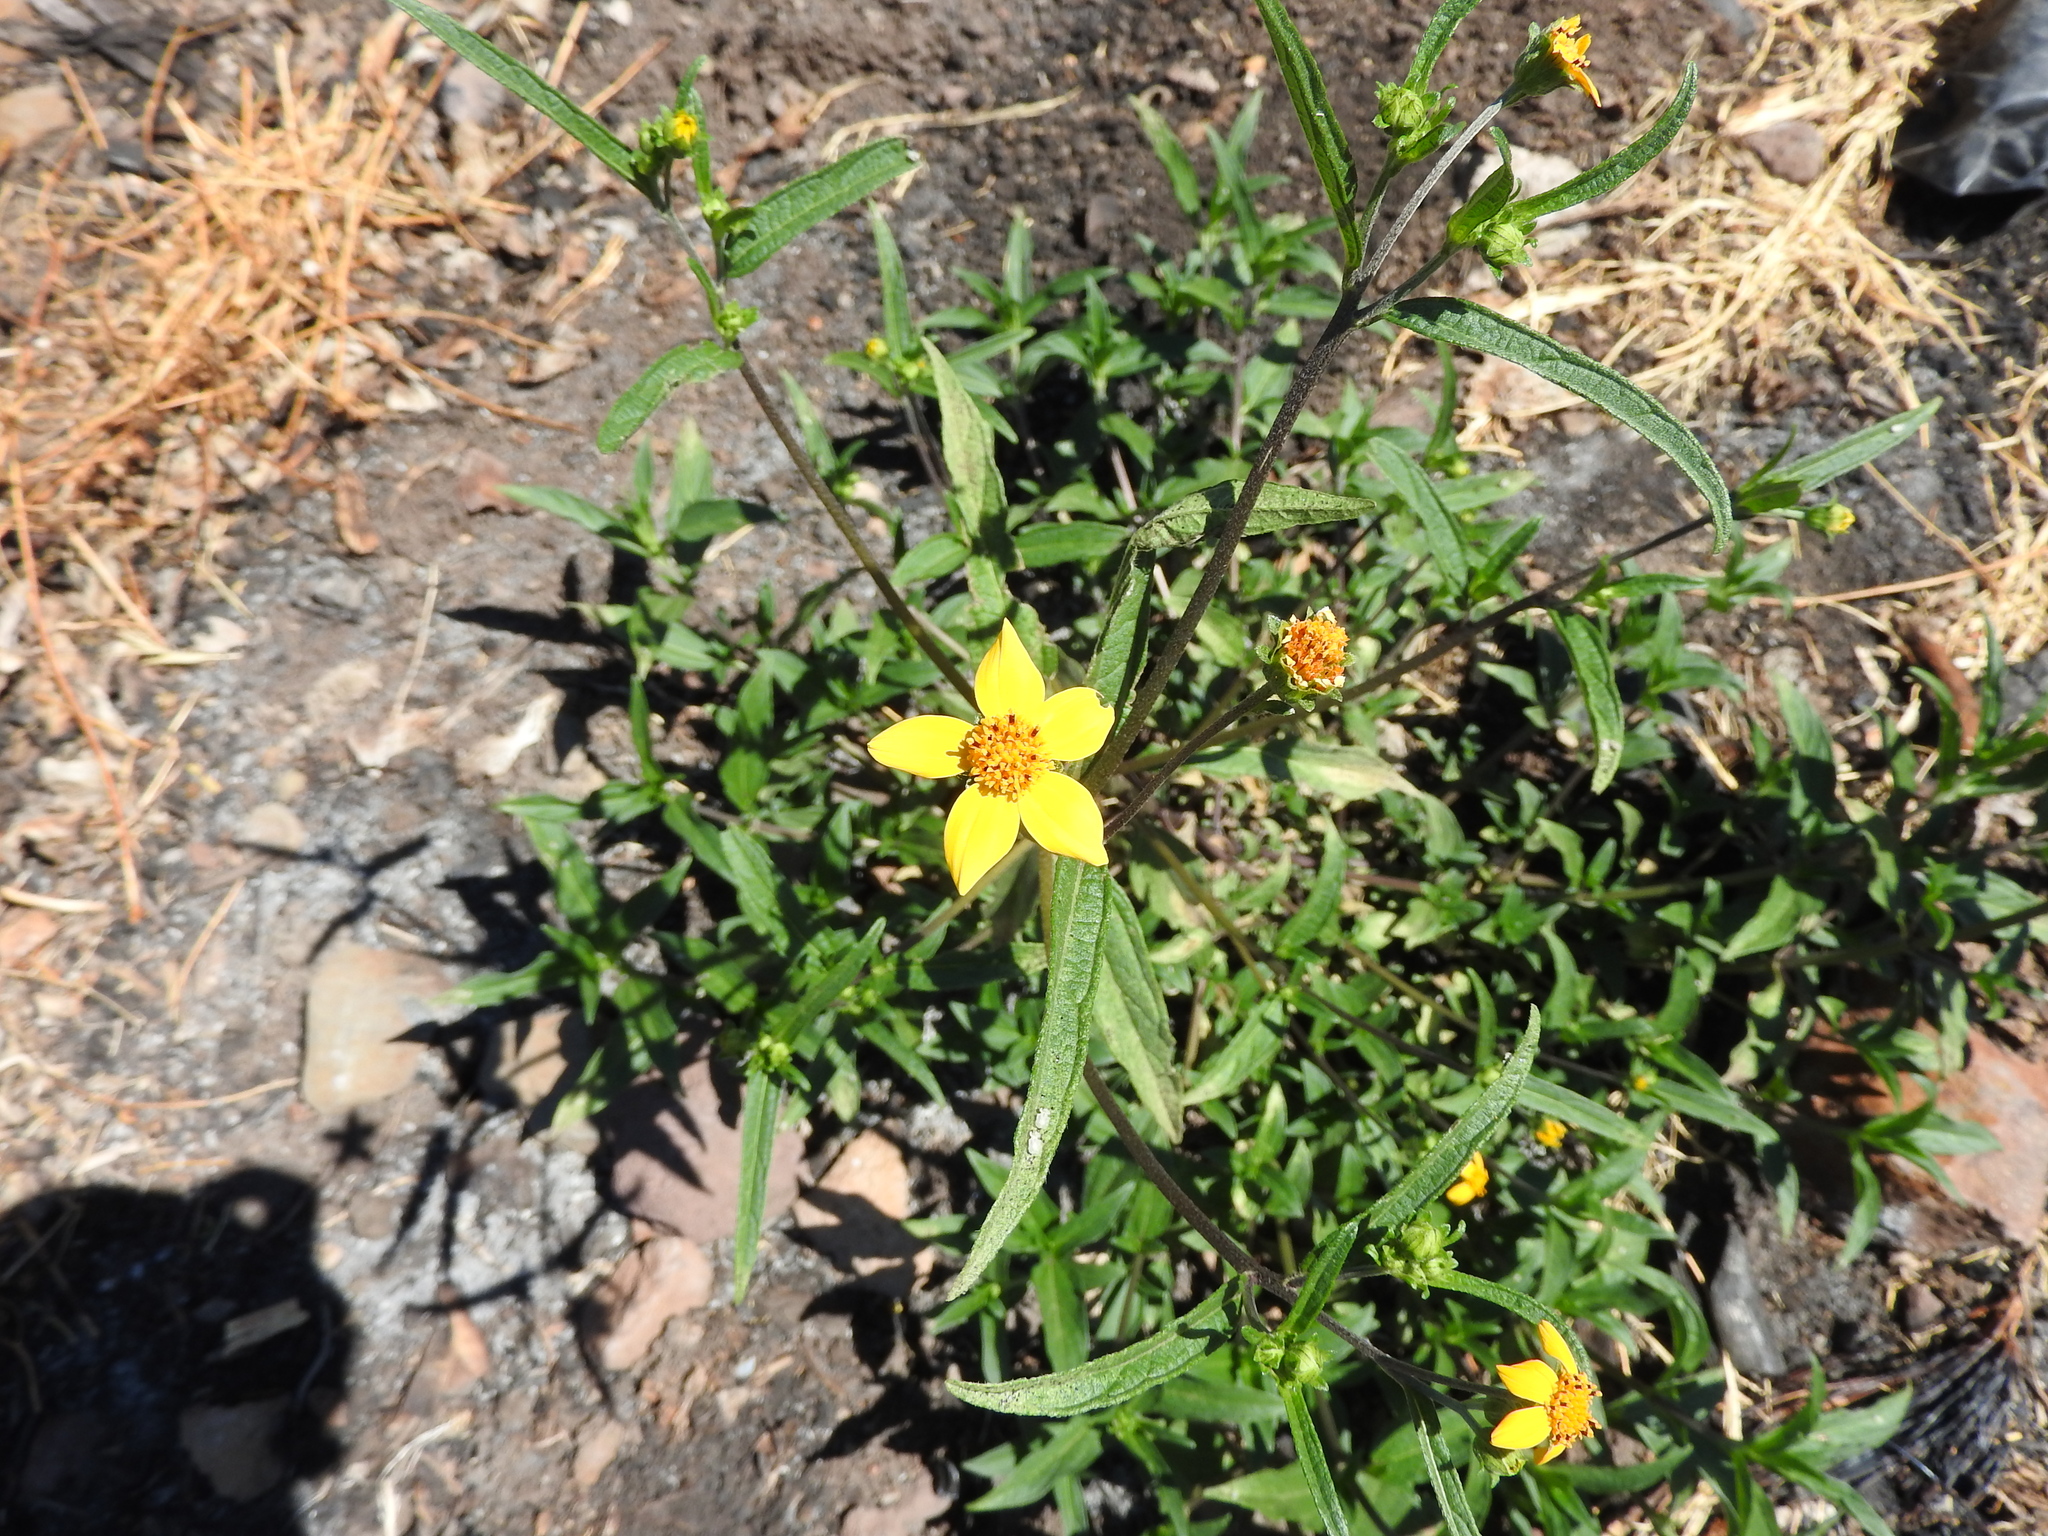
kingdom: Plantae
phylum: Tracheophyta
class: Magnoliopsida
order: Asterales
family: Asteraceae
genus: Aldama
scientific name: Aldama dentata
